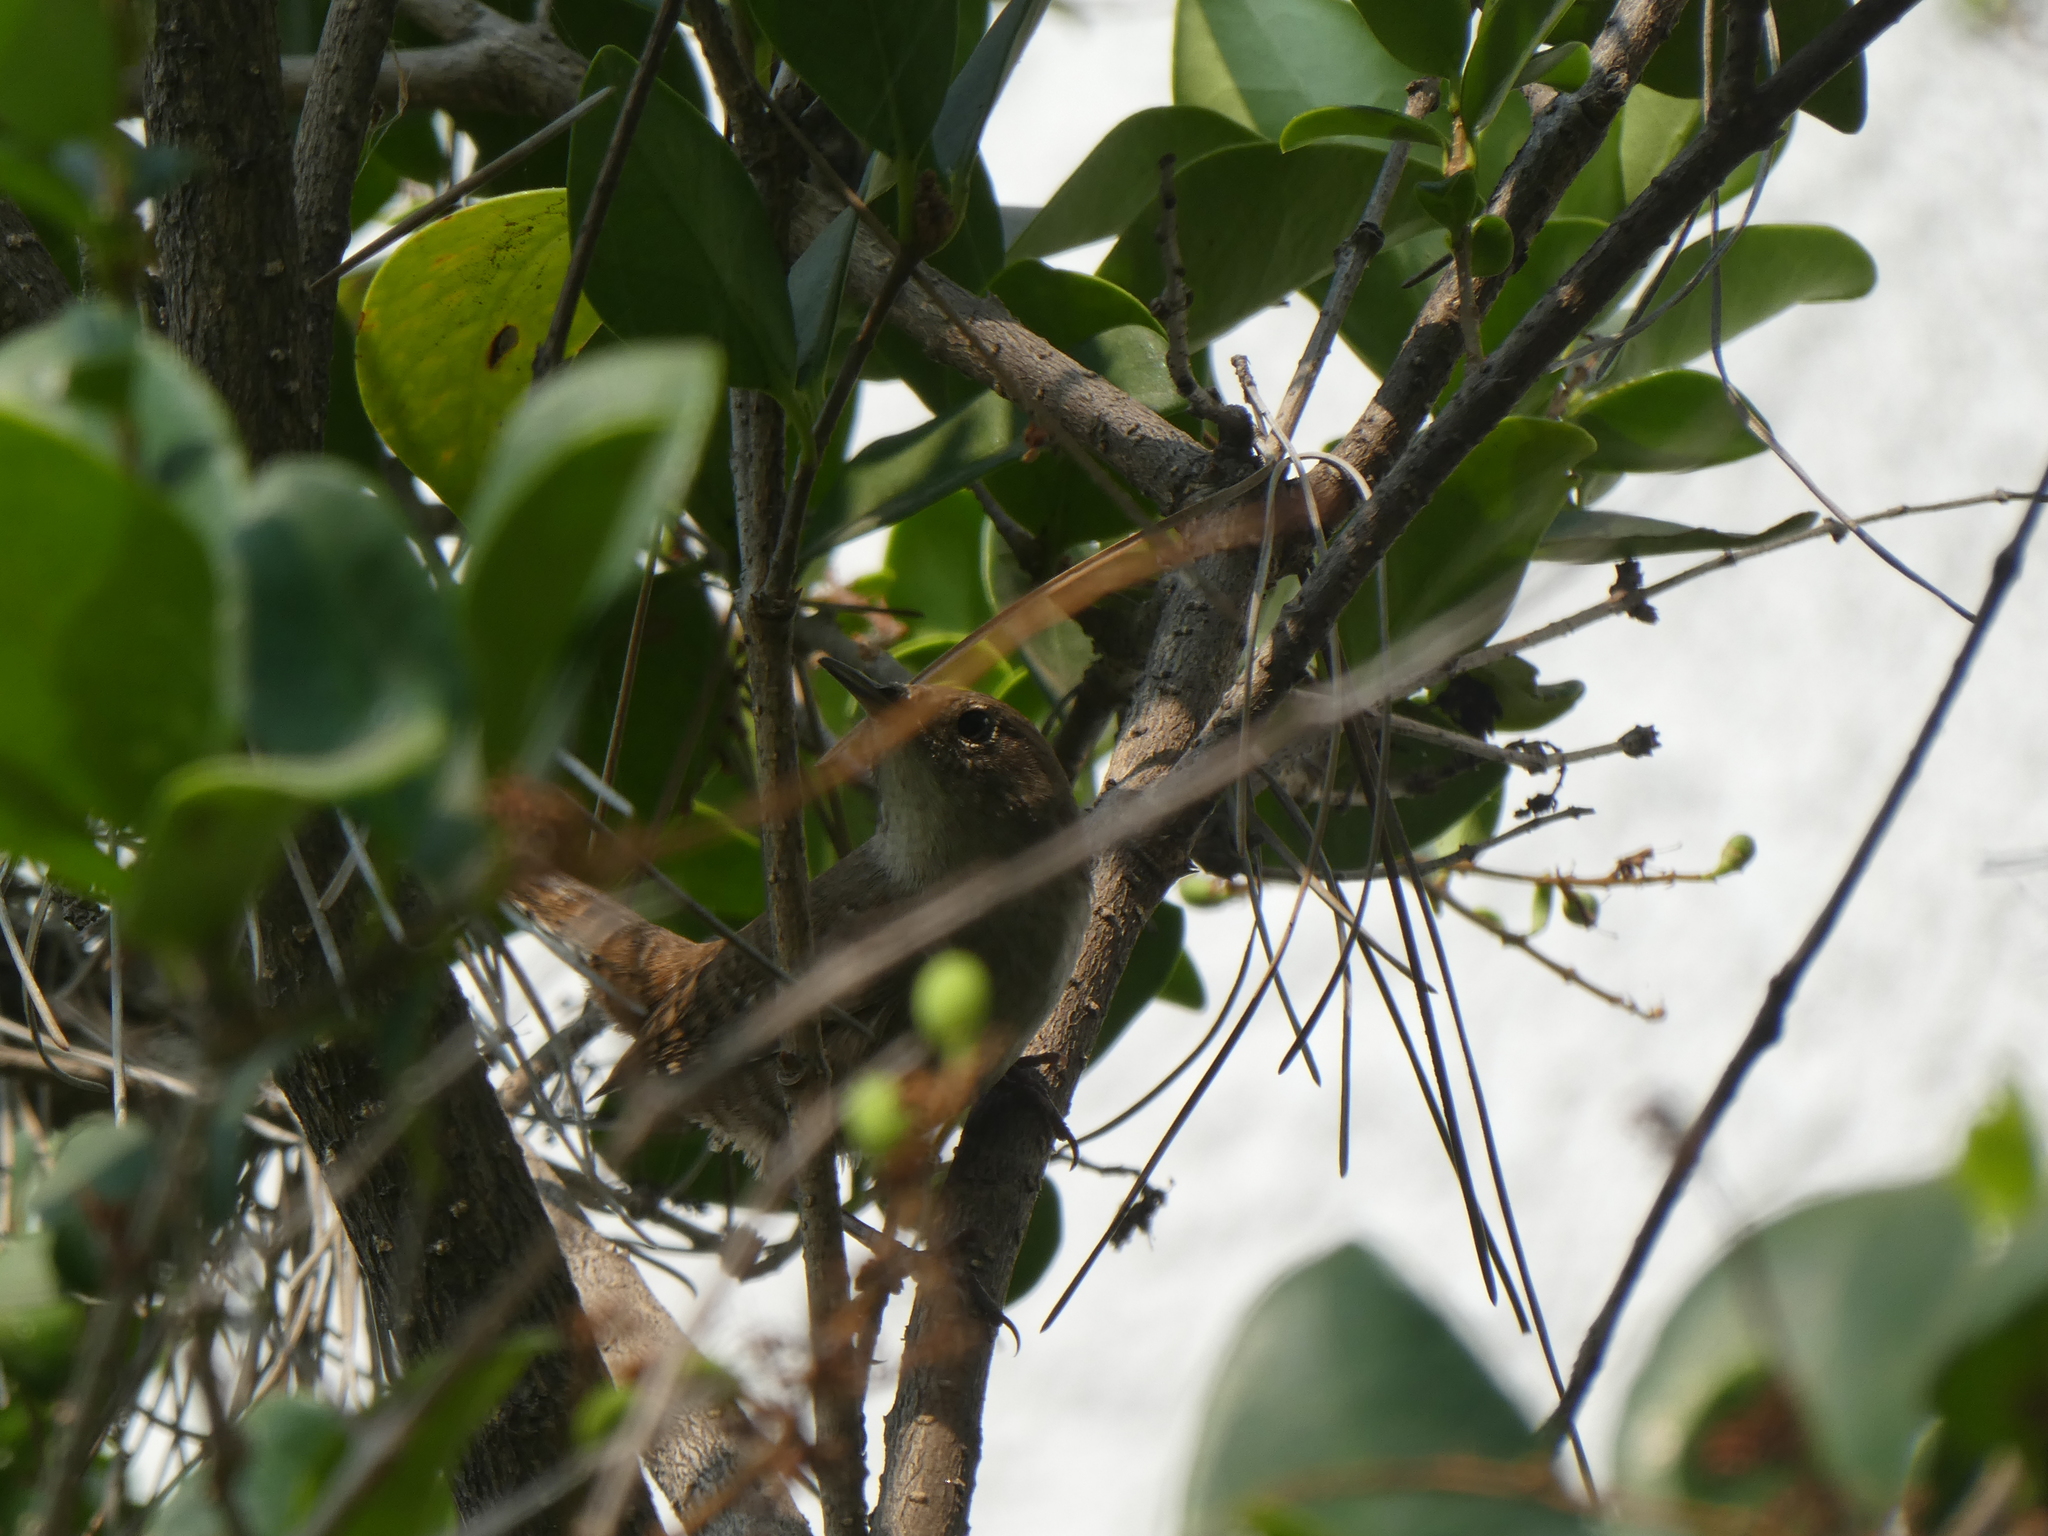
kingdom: Animalia
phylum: Chordata
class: Aves
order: Passeriformes
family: Troglodytidae
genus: Troglodytes
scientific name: Troglodytes aedon
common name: House wren
